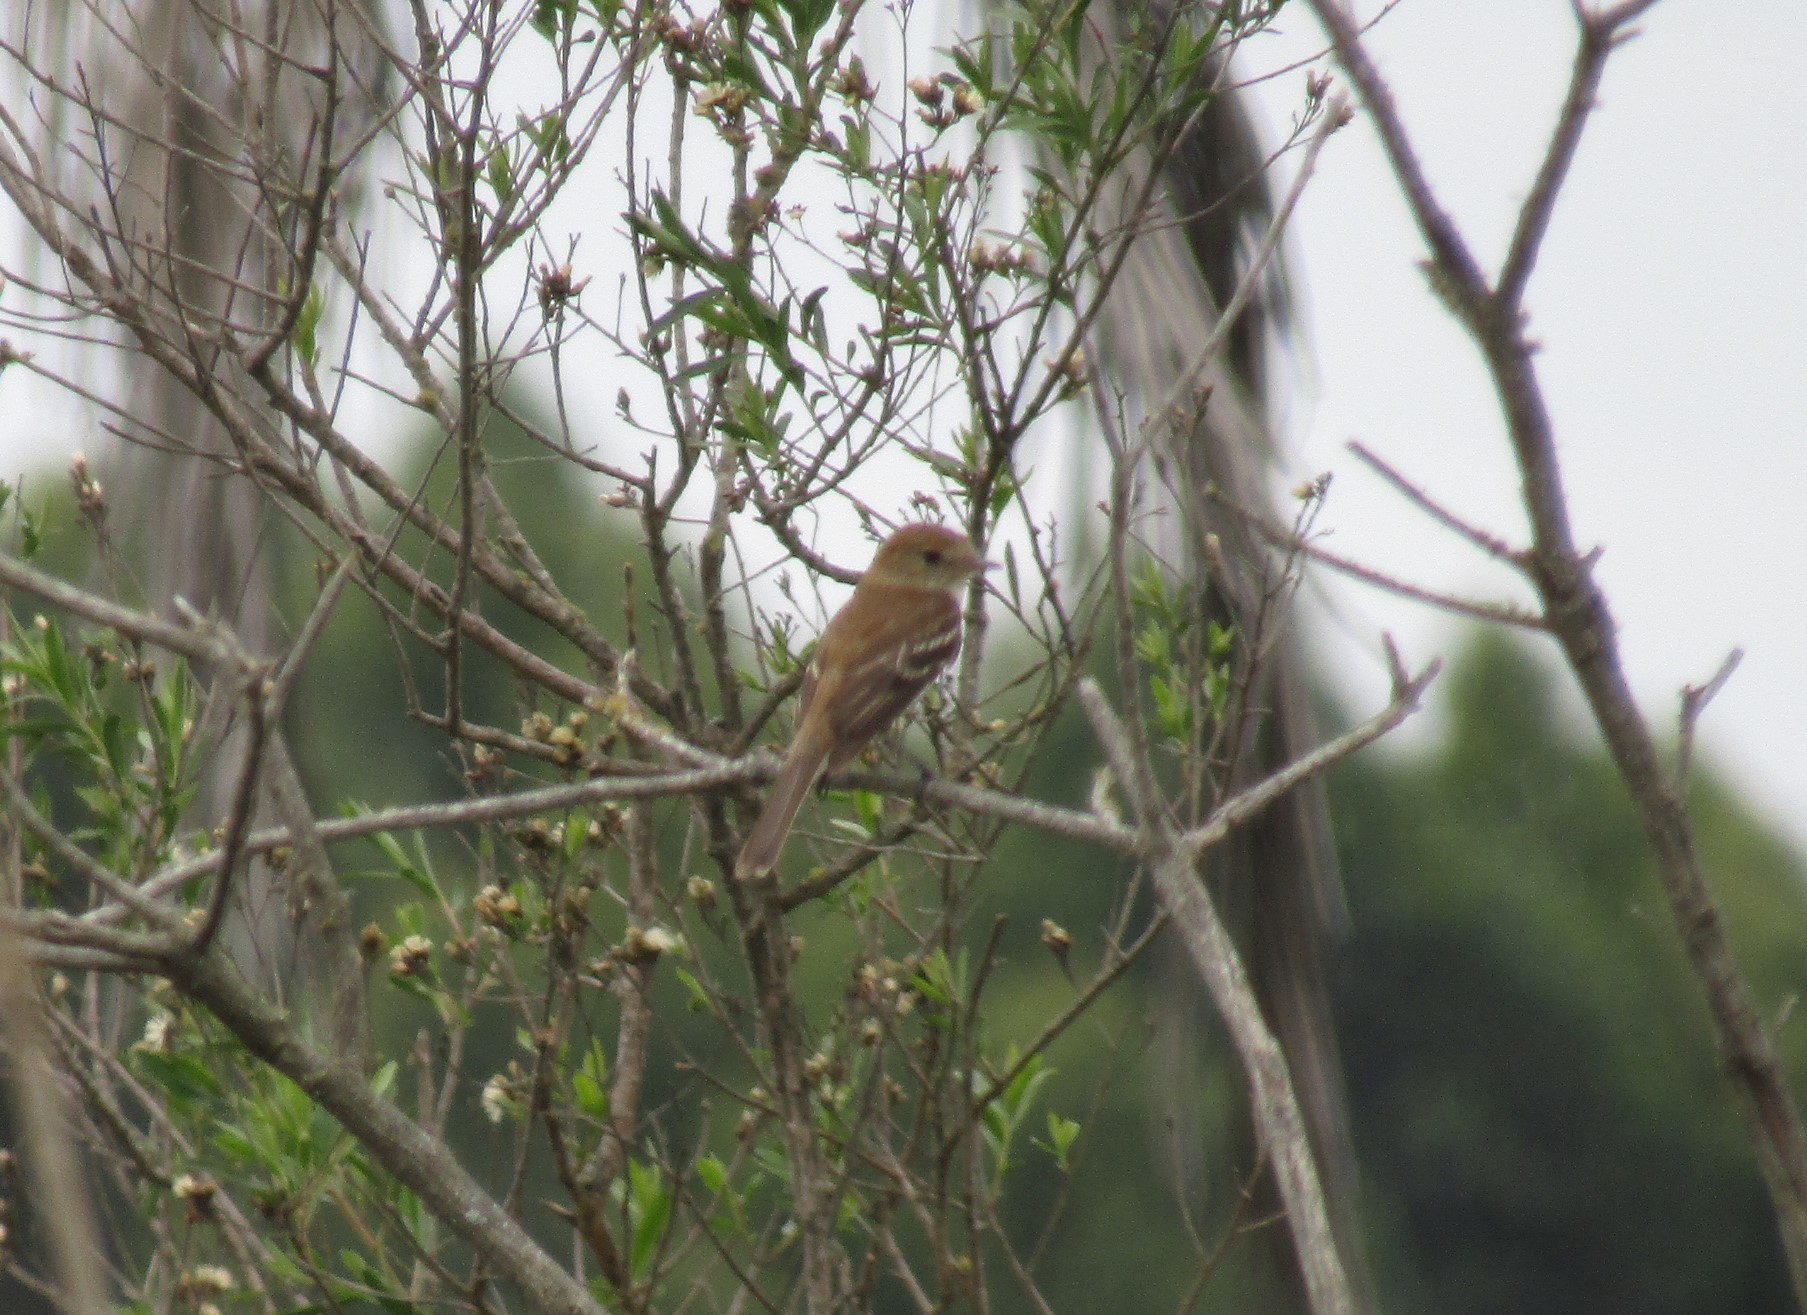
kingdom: Animalia
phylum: Chordata
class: Aves
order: Passeriformes
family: Tyrannidae
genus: Myiophobus
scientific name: Myiophobus fasciatus
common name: Bran-colored flycatcher
